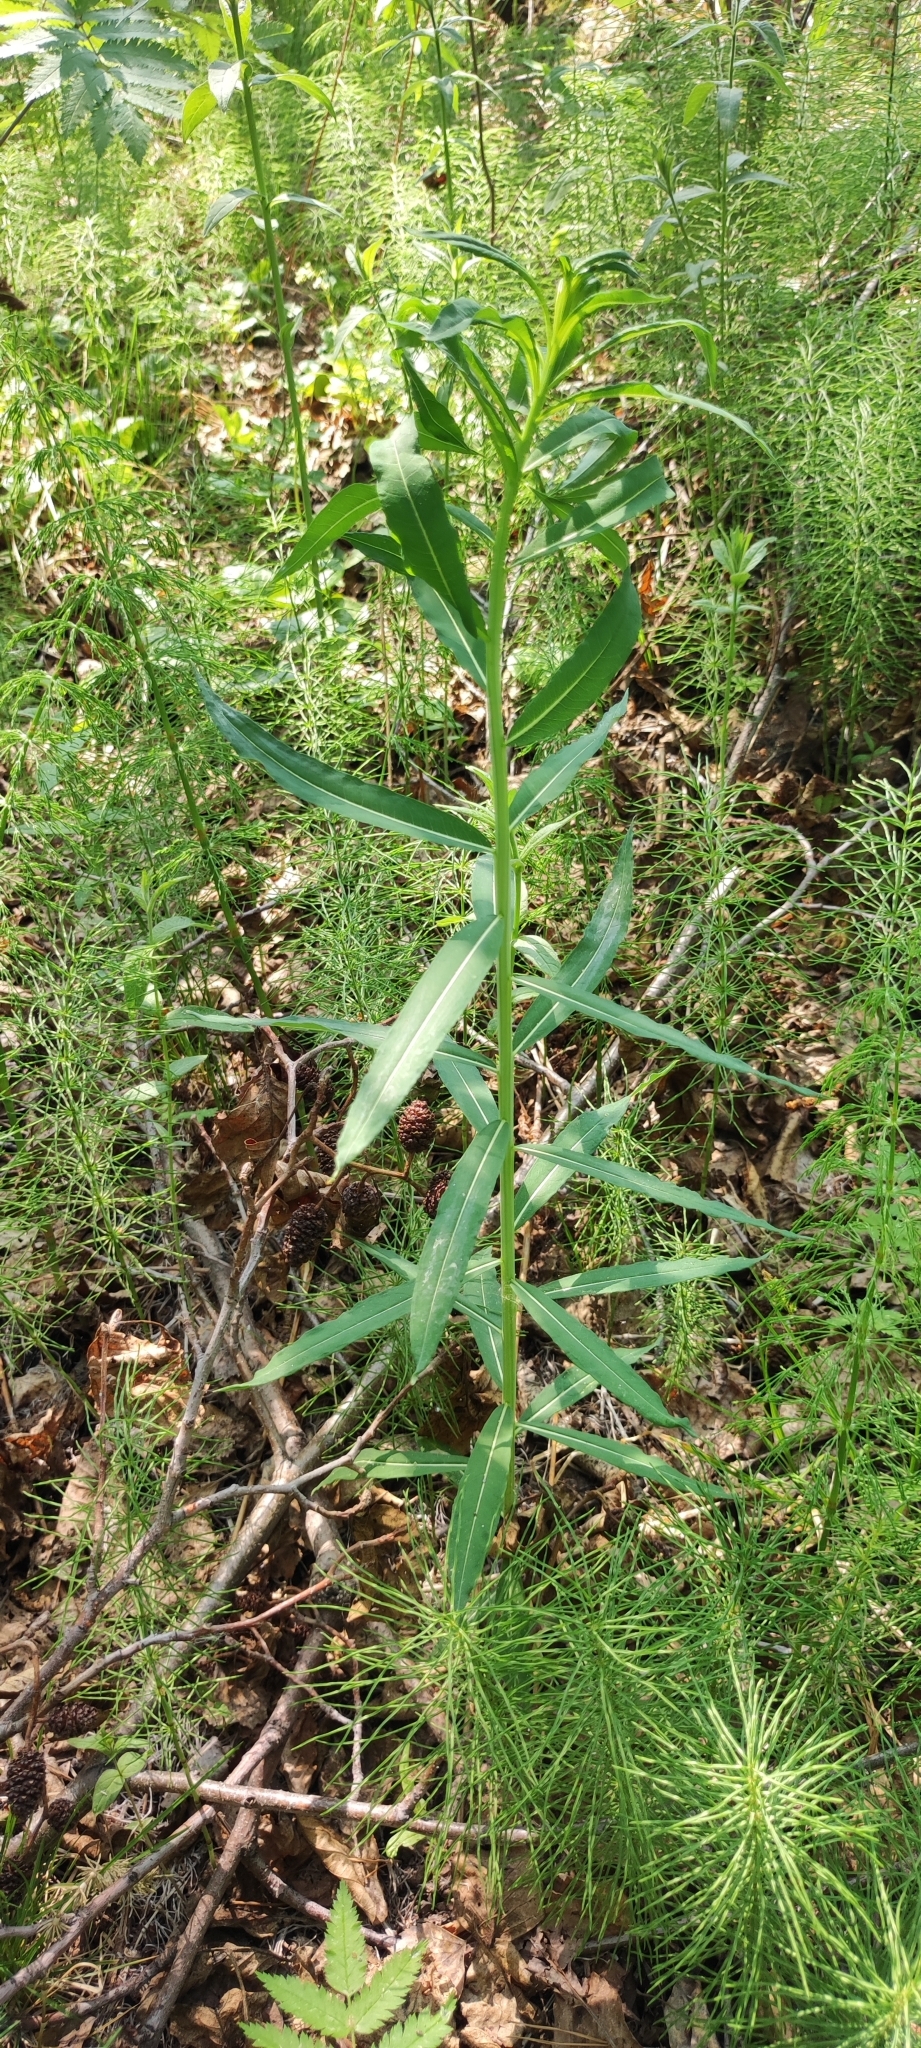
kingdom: Plantae
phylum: Tracheophyta
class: Magnoliopsida
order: Myrtales
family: Onagraceae
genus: Chamaenerion
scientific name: Chamaenerion angustifolium
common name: Fireweed
